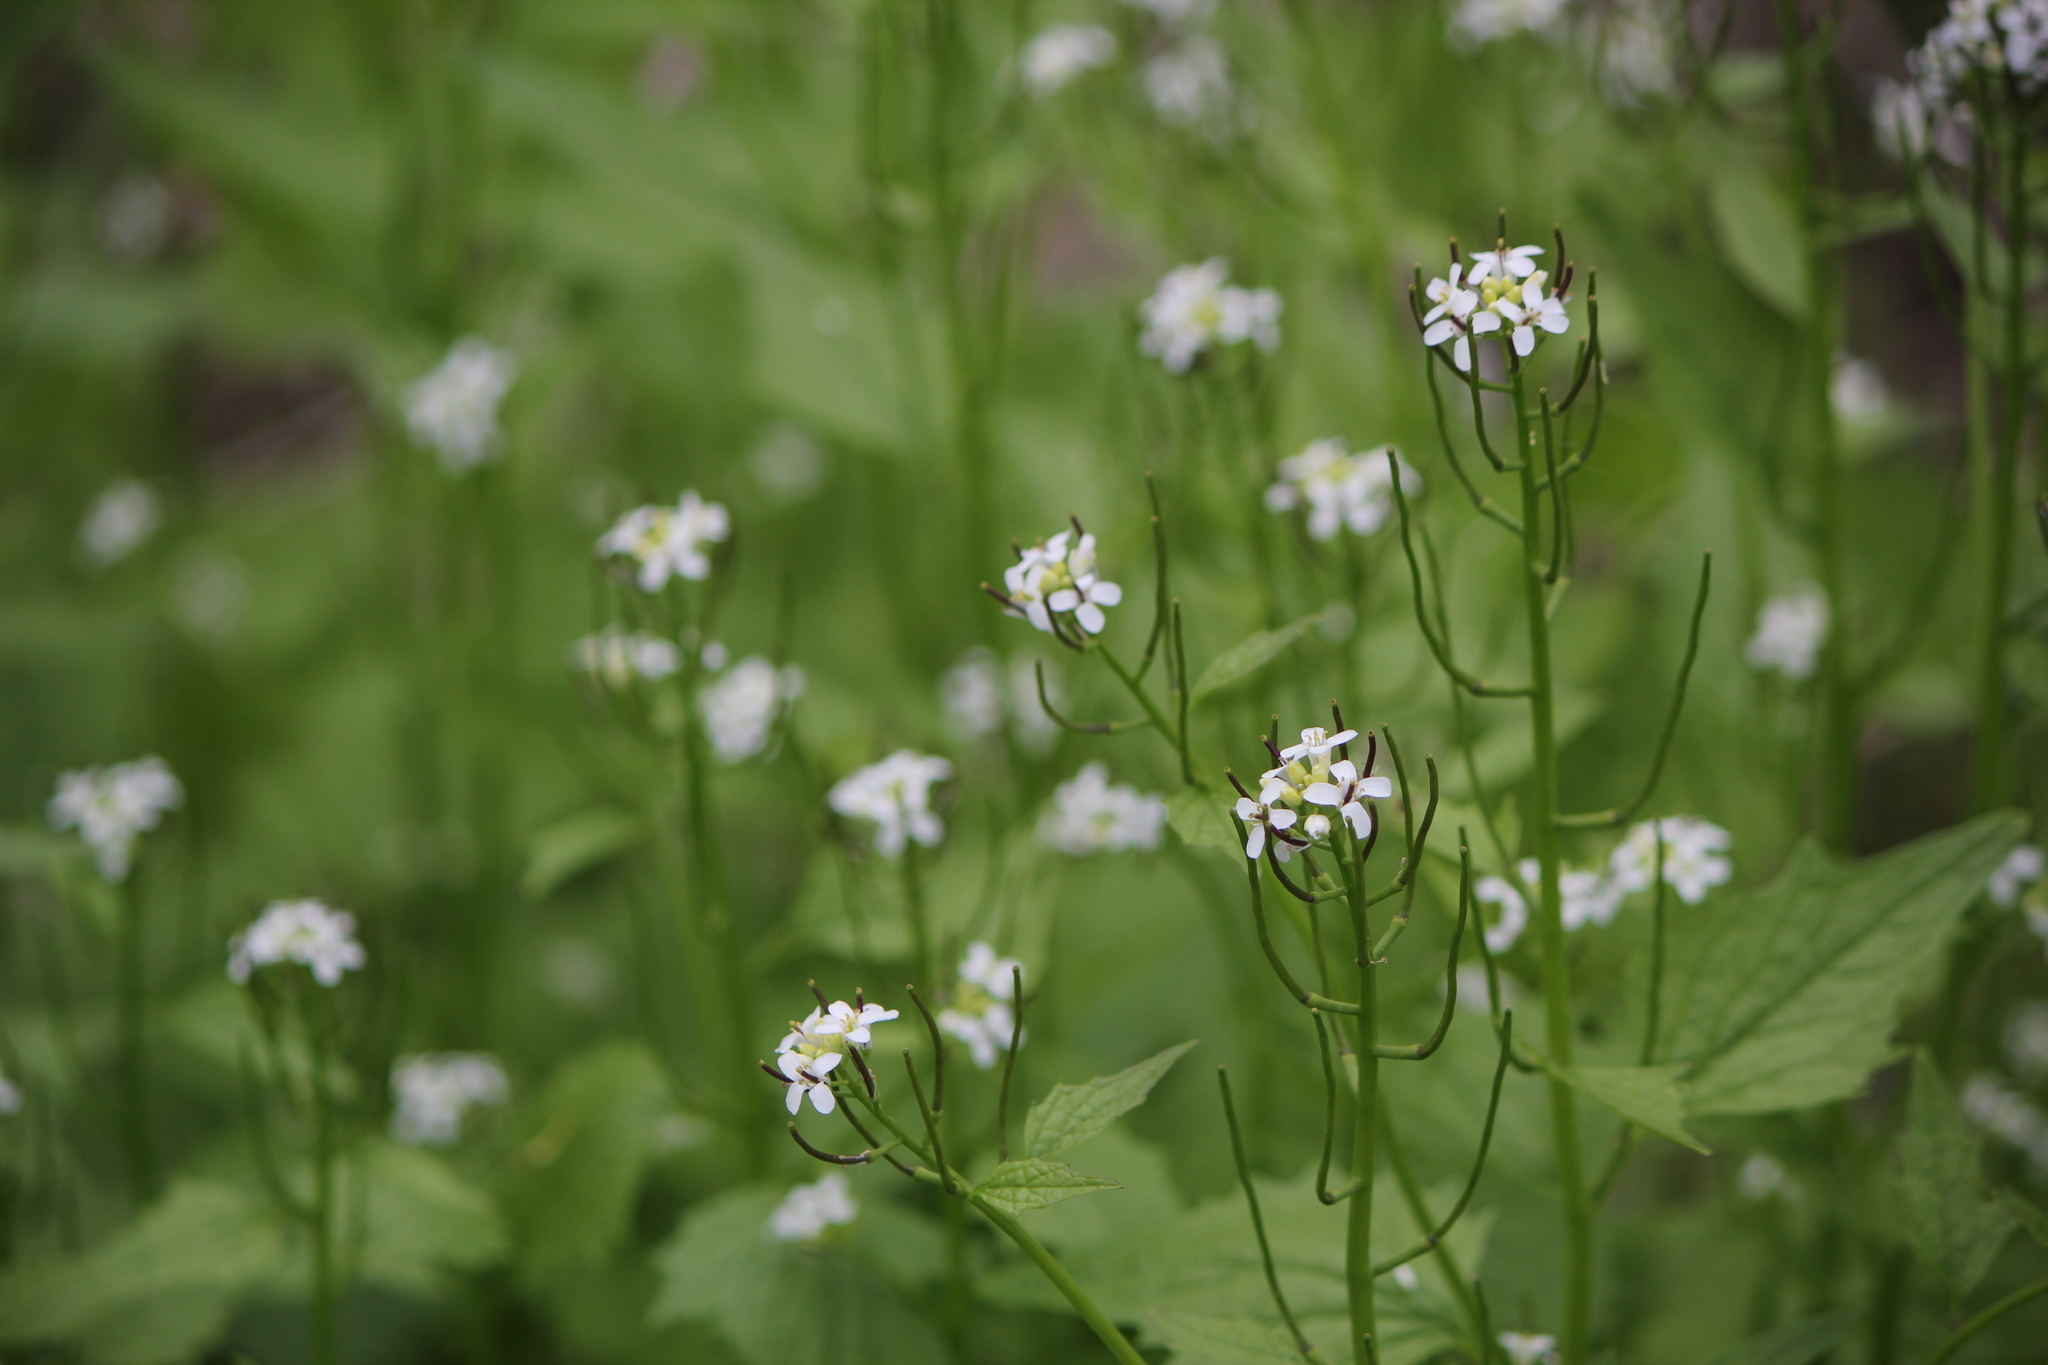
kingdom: Plantae
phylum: Tracheophyta
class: Magnoliopsida
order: Brassicales
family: Brassicaceae
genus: Alliaria
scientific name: Alliaria petiolata
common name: Garlic mustard
